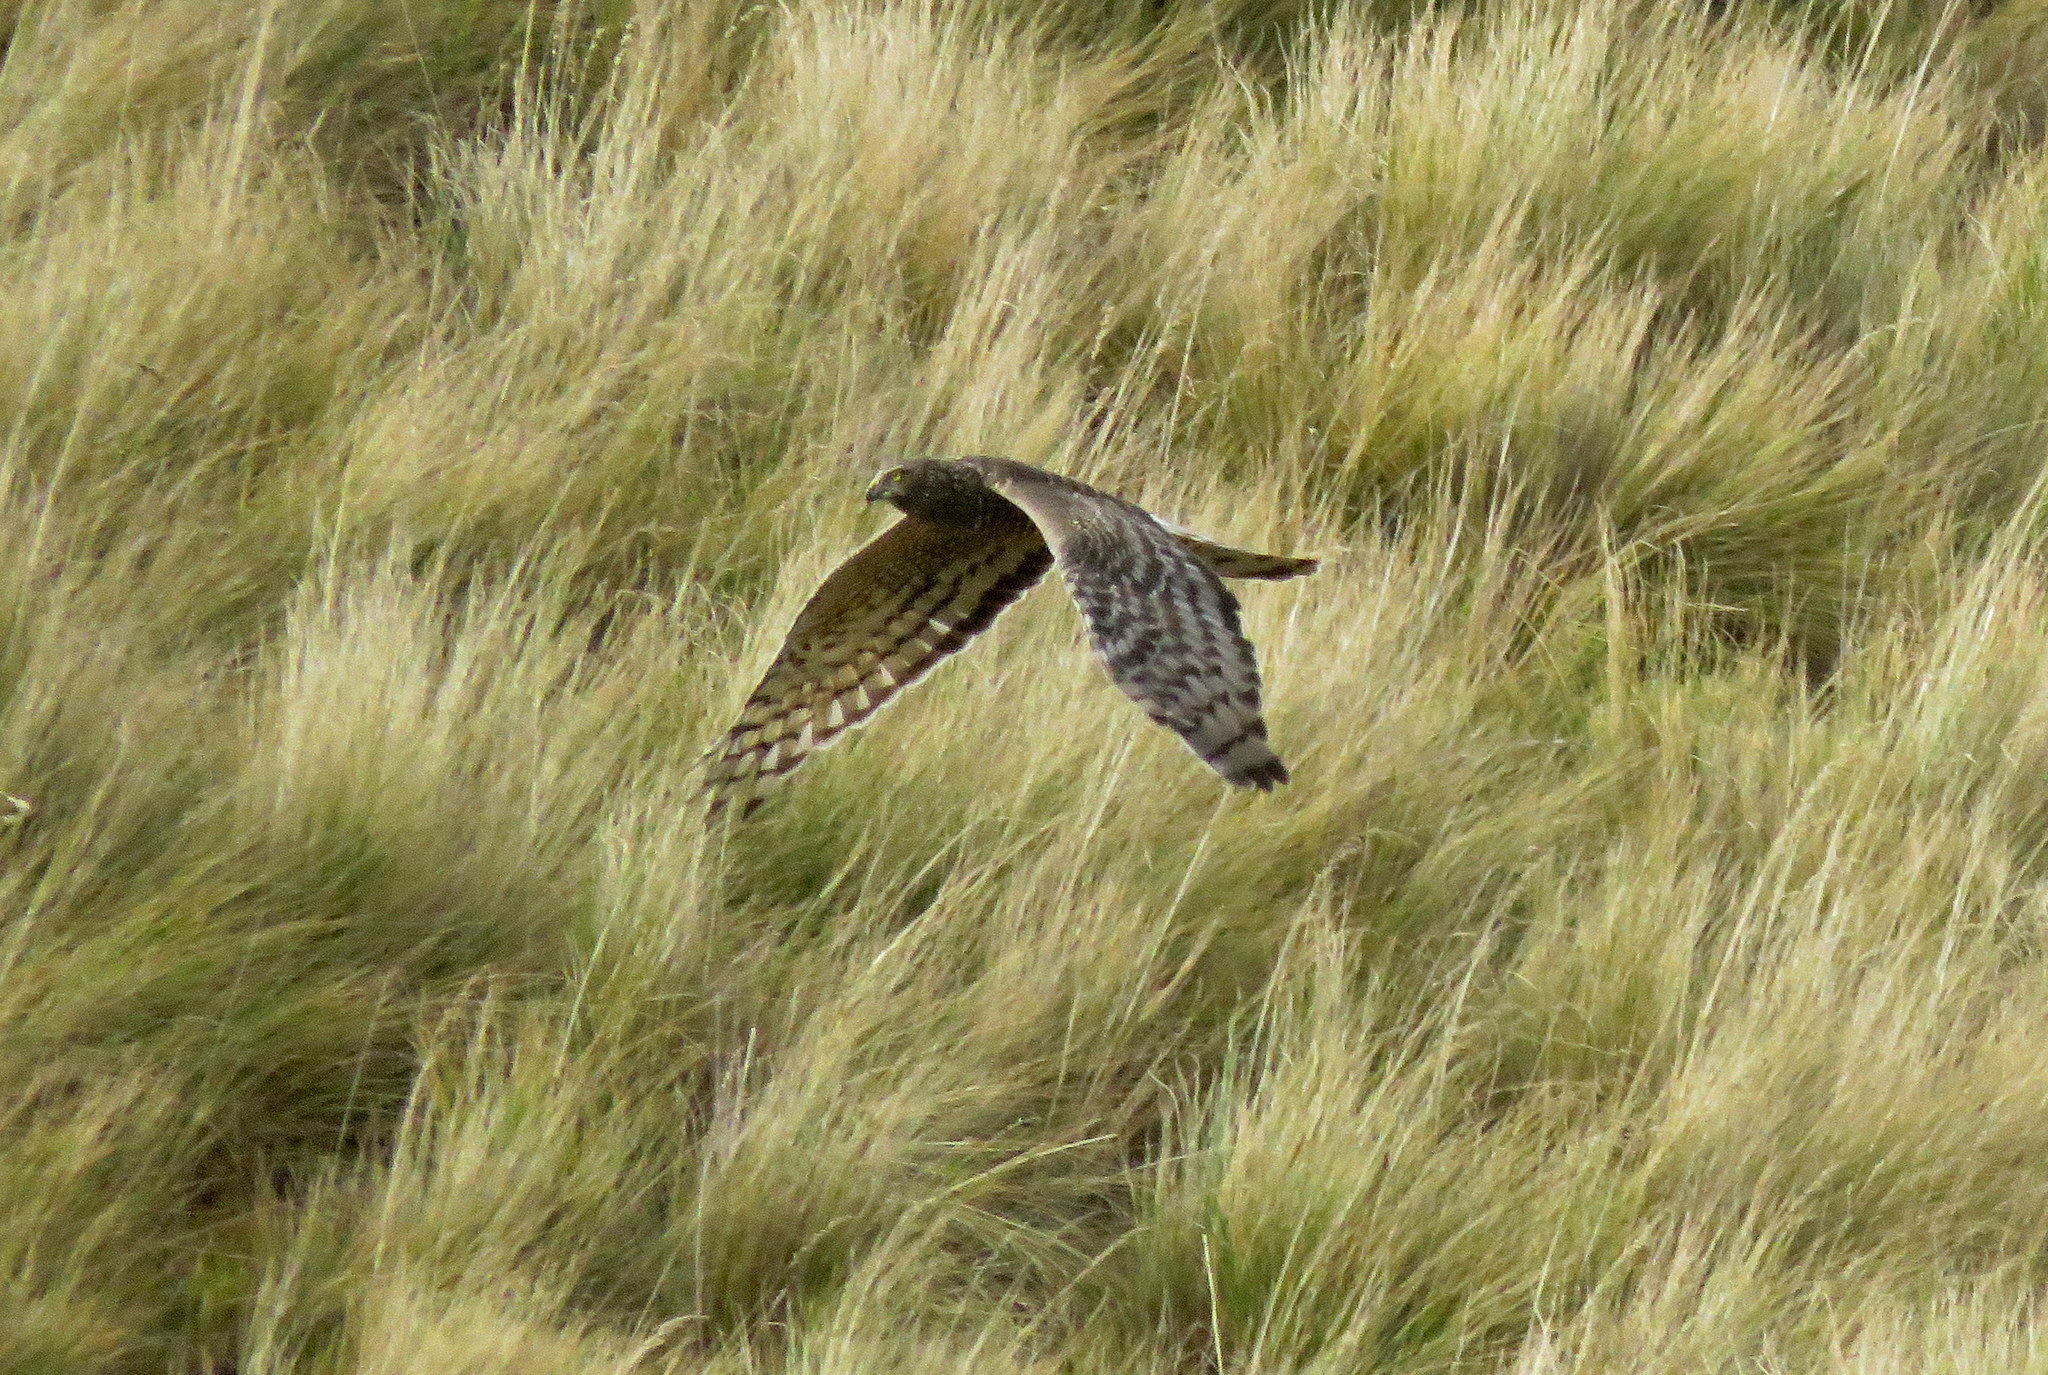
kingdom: Animalia
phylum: Chordata
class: Aves
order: Accipitriformes
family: Accipitridae
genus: Circus
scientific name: Circus cinereus
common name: Cinereous harrier
